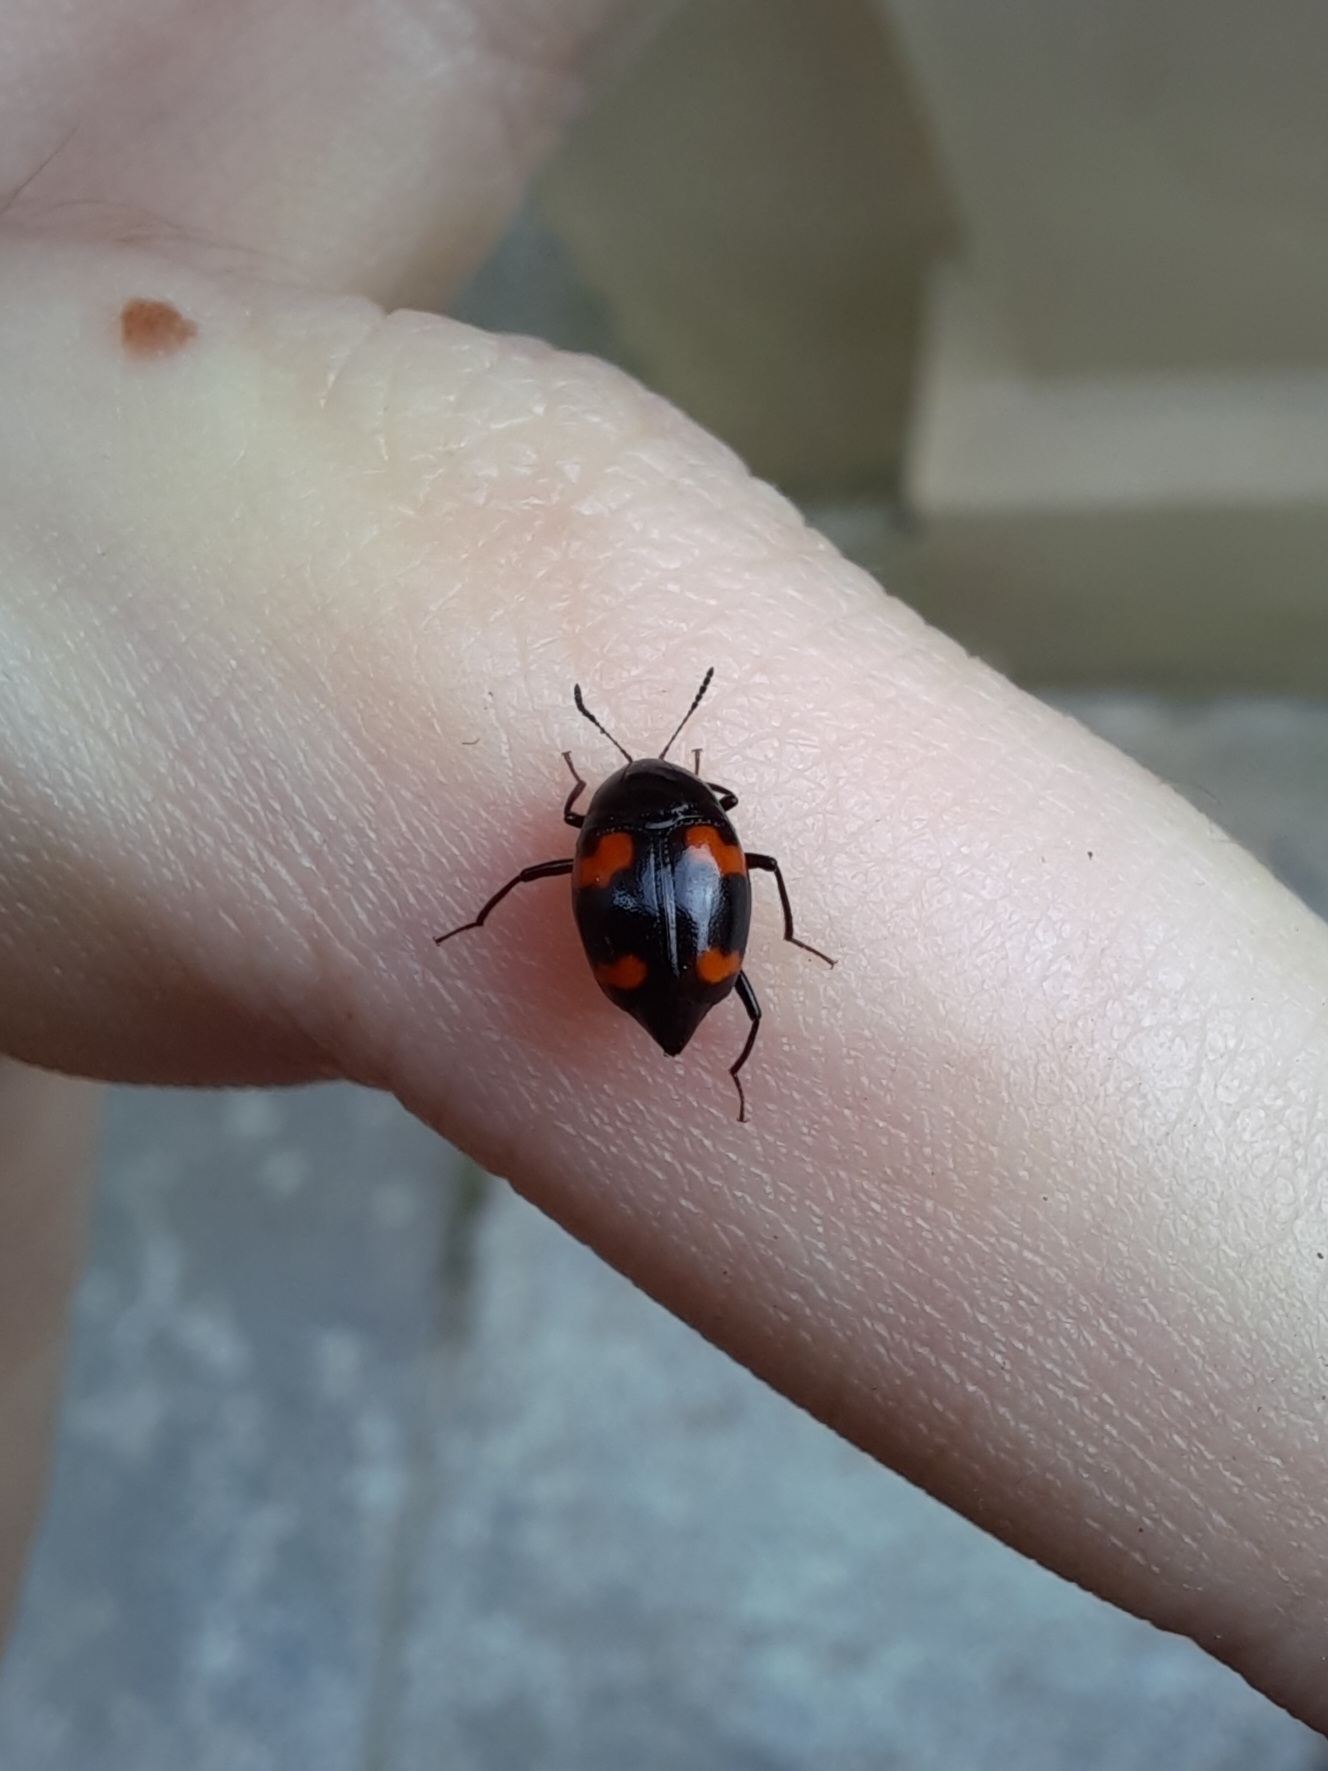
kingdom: Animalia
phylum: Arthropoda
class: Insecta
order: Coleoptera
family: Staphylinidae
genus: Scaphidium
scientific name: Scaphidium quadrimaculatum
